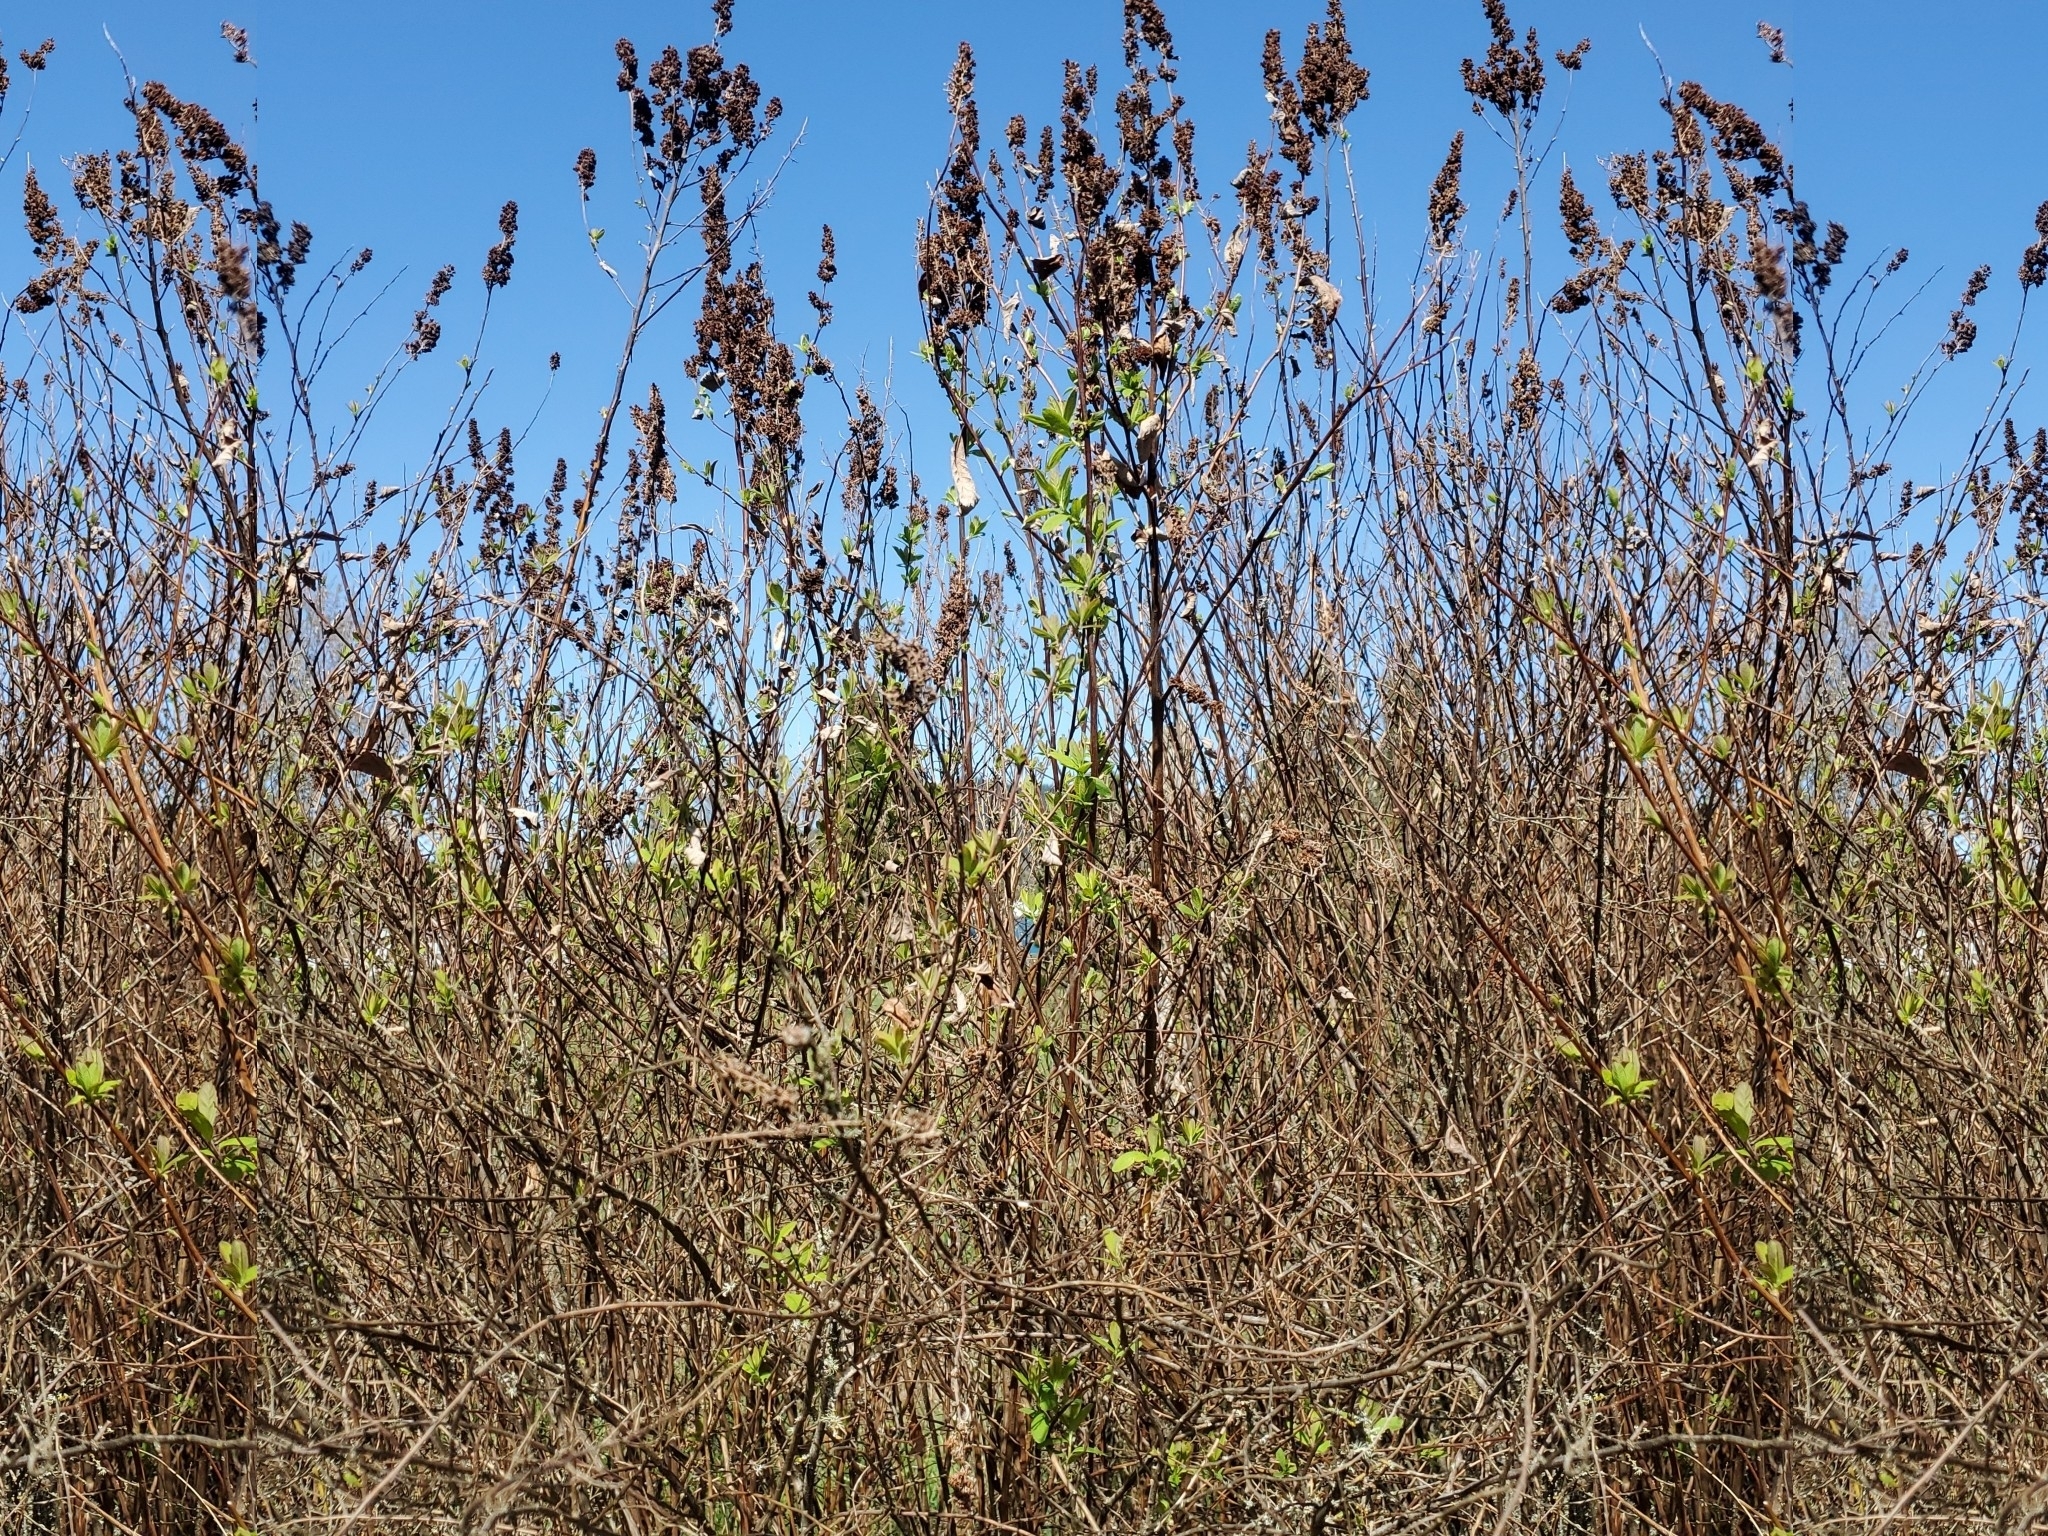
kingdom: Plantae
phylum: Tracheophyta
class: Magnoliopsida
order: Rosales
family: Rosaceae
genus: Spiraea
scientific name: Spiraea douglasii
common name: Steeplebush
